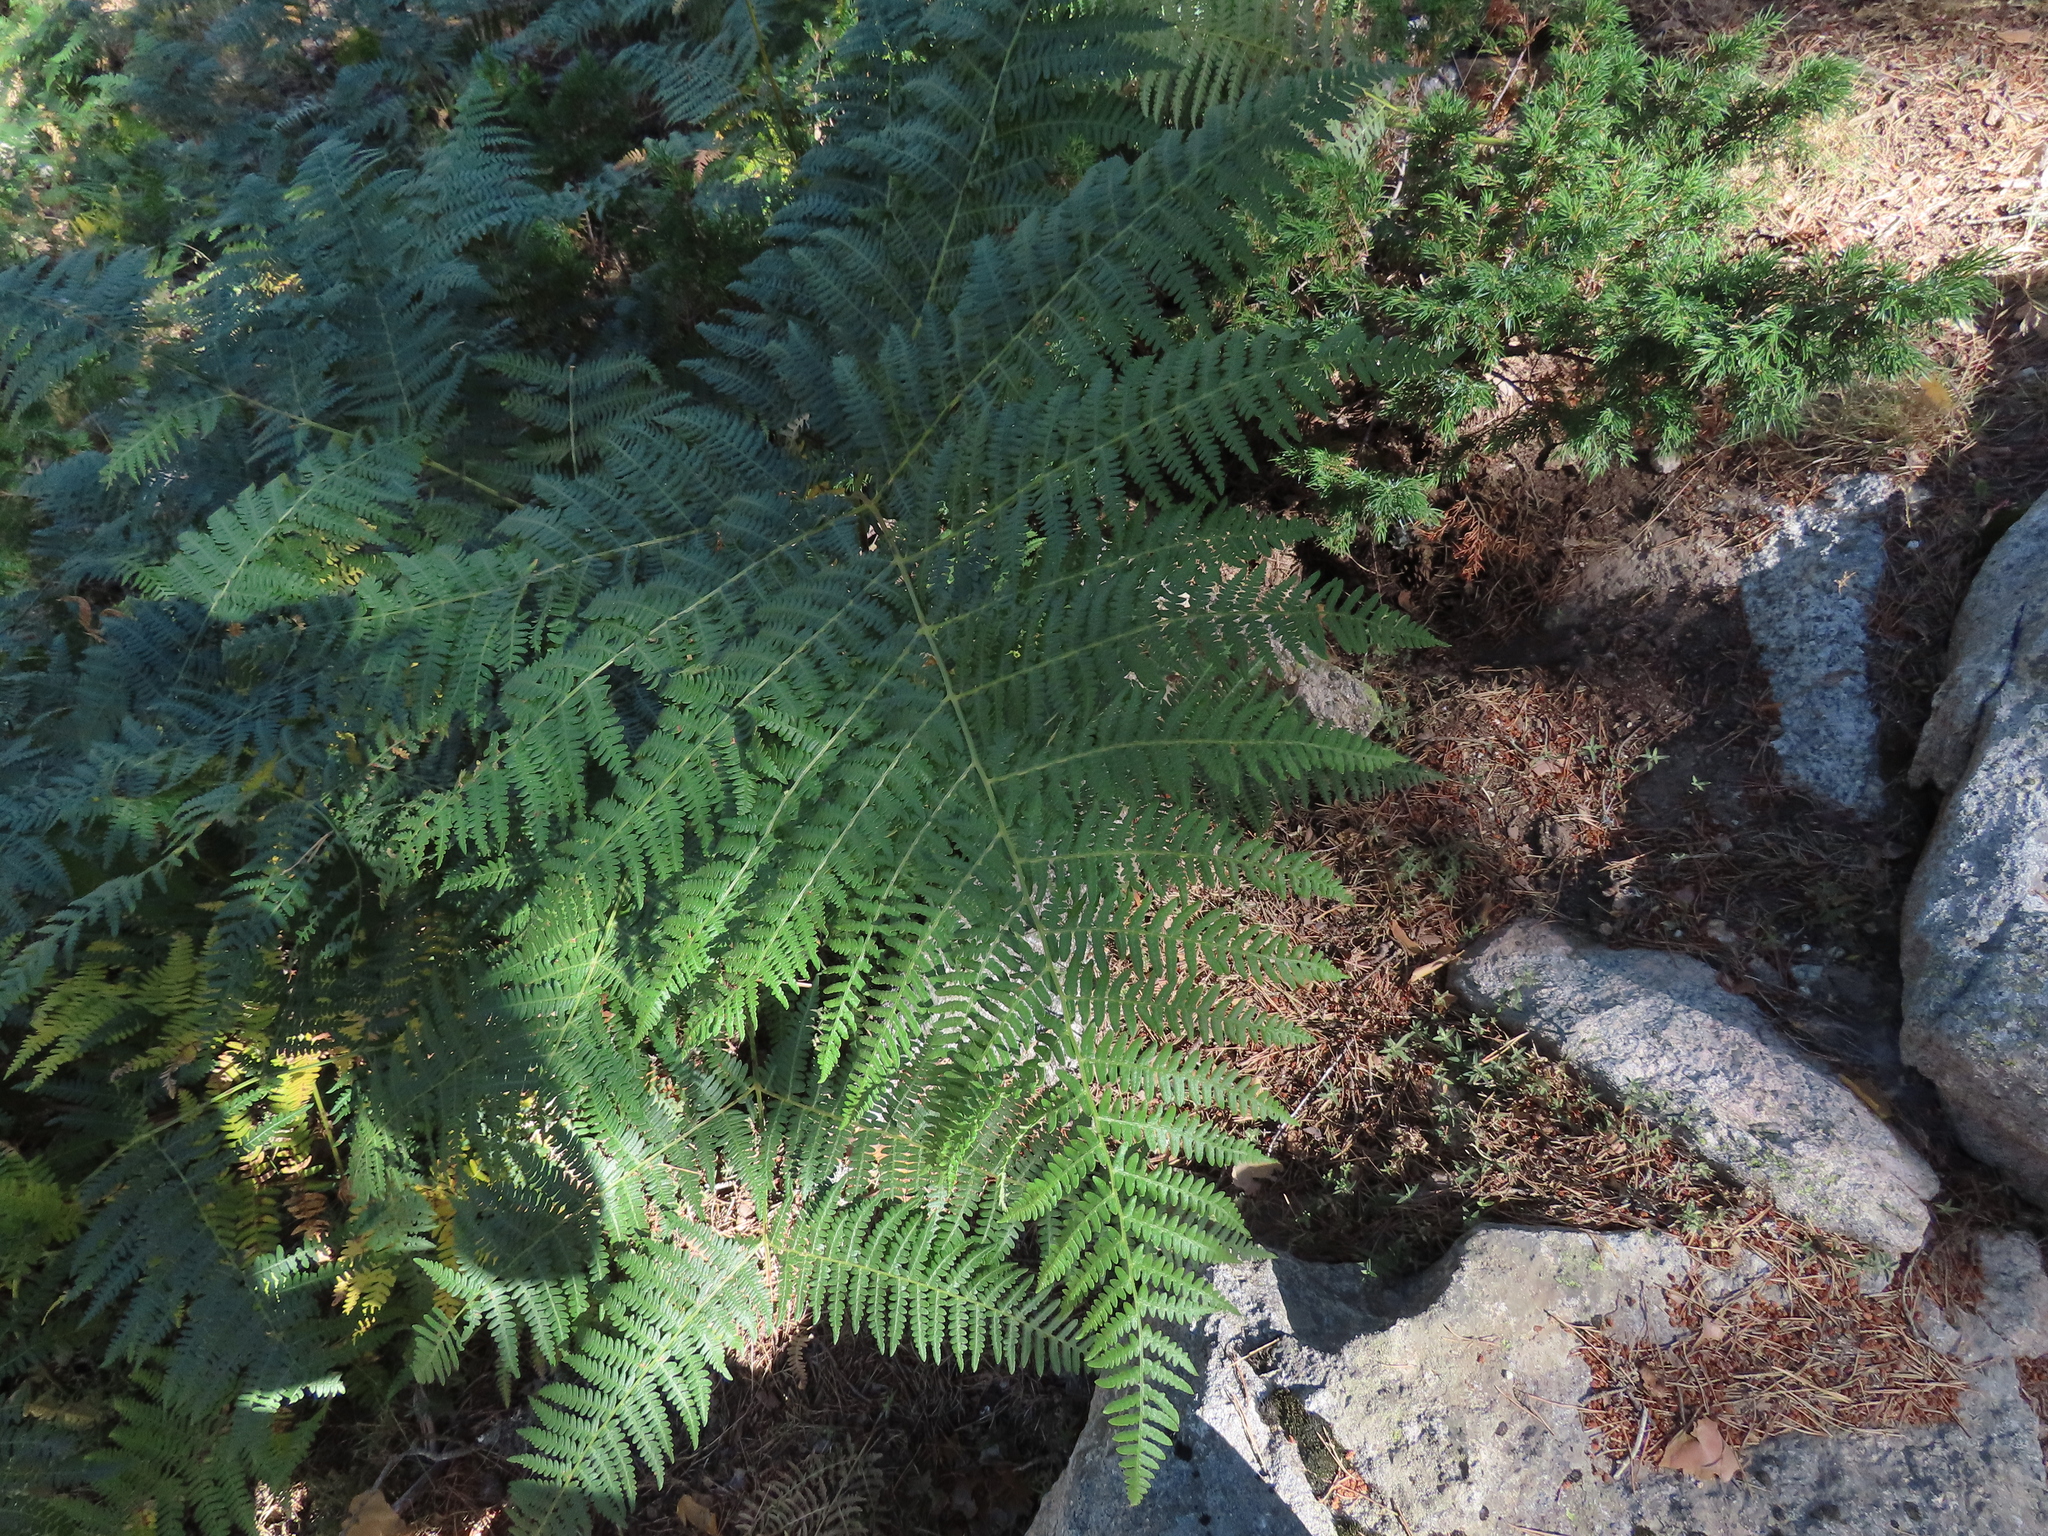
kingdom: Plantae
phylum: Tracheophyta
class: Polypodiopsida
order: Polypodiales
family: Dennstaedtiaceae
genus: Pteridium
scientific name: Pteridium aquilinum
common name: Bracken
